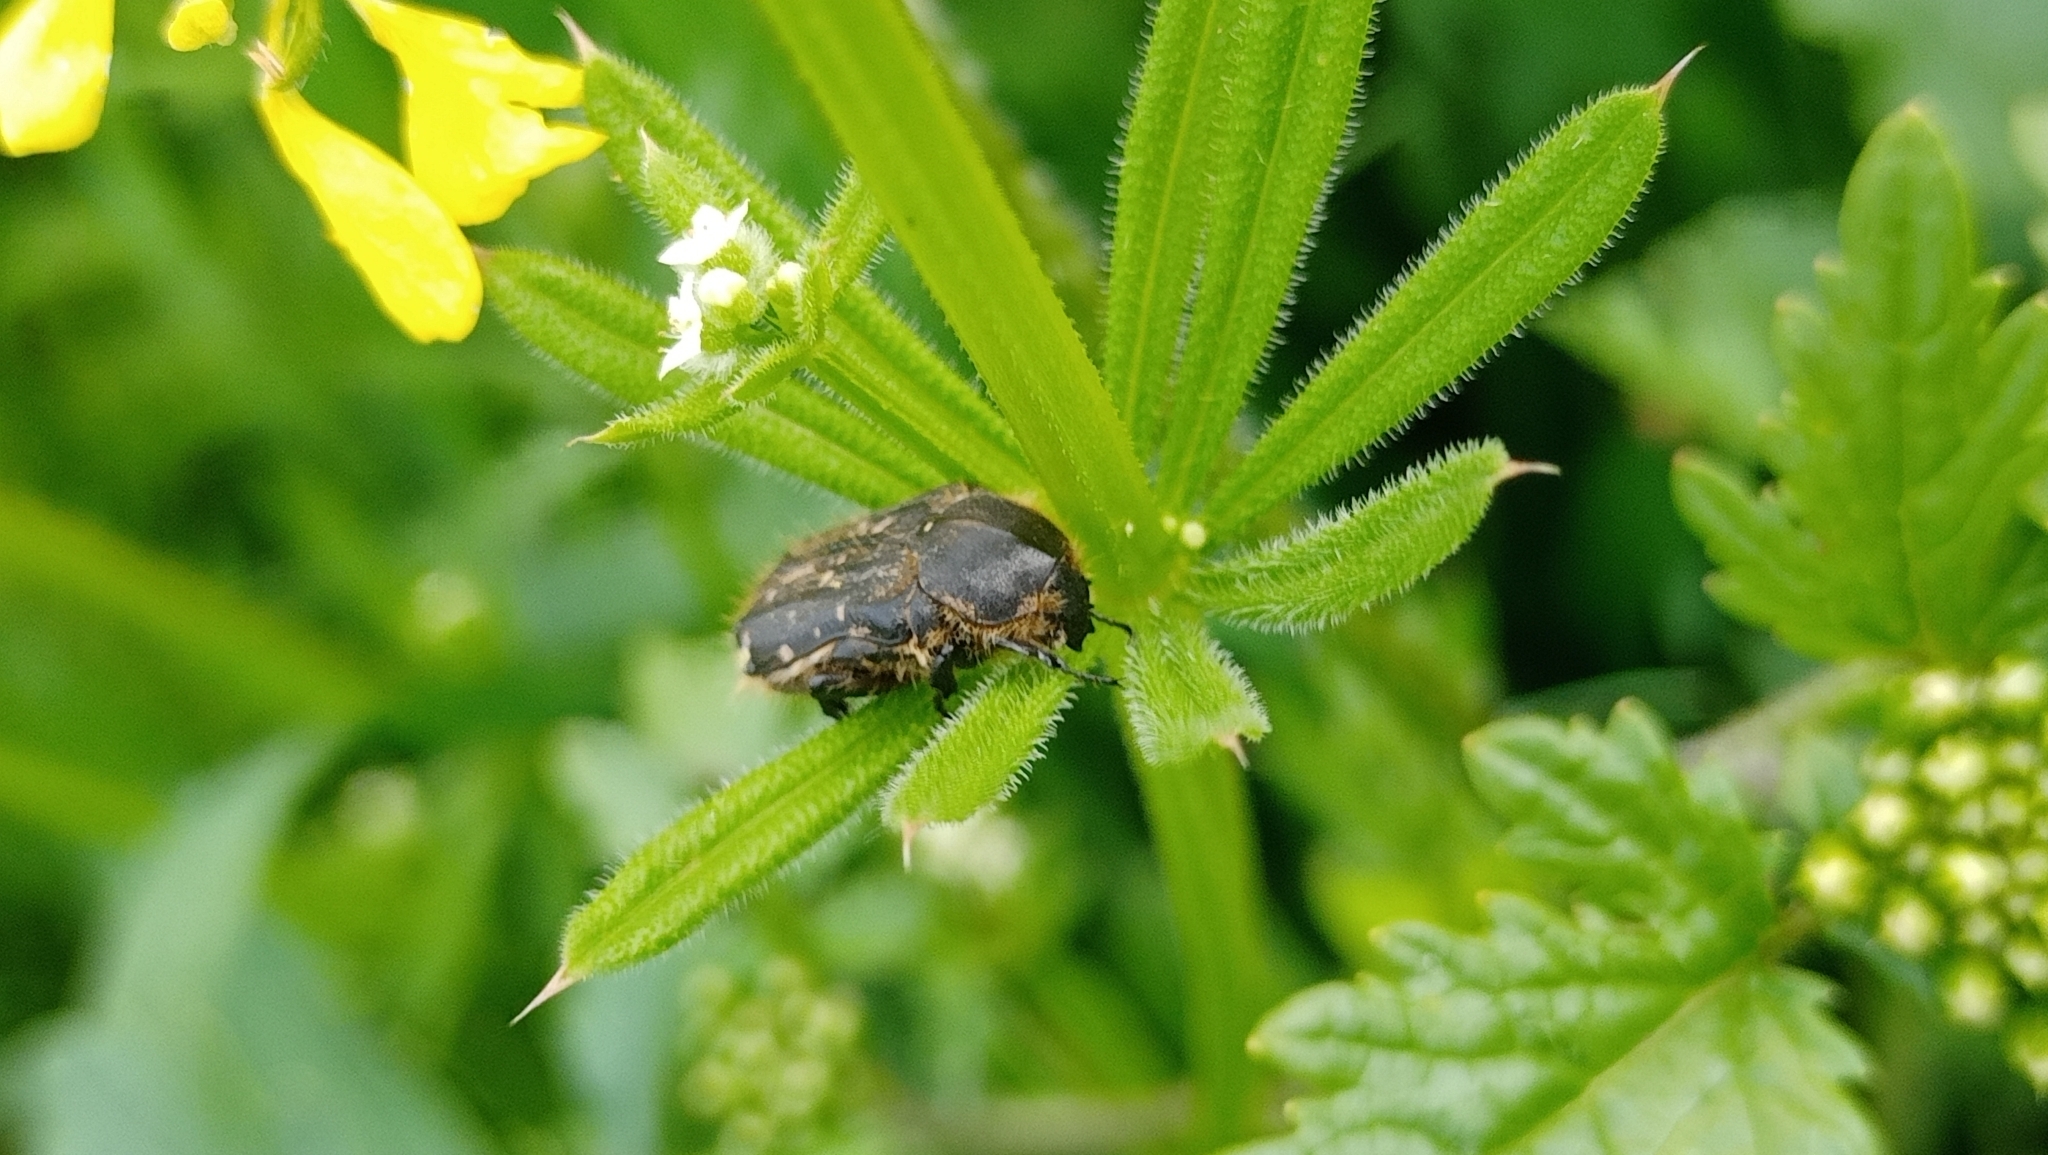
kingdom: Animalia
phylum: Arthropoda
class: Insecta
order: Coleoptera
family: Scarabaeidae
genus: Tropinota
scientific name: Tropinota hirta
